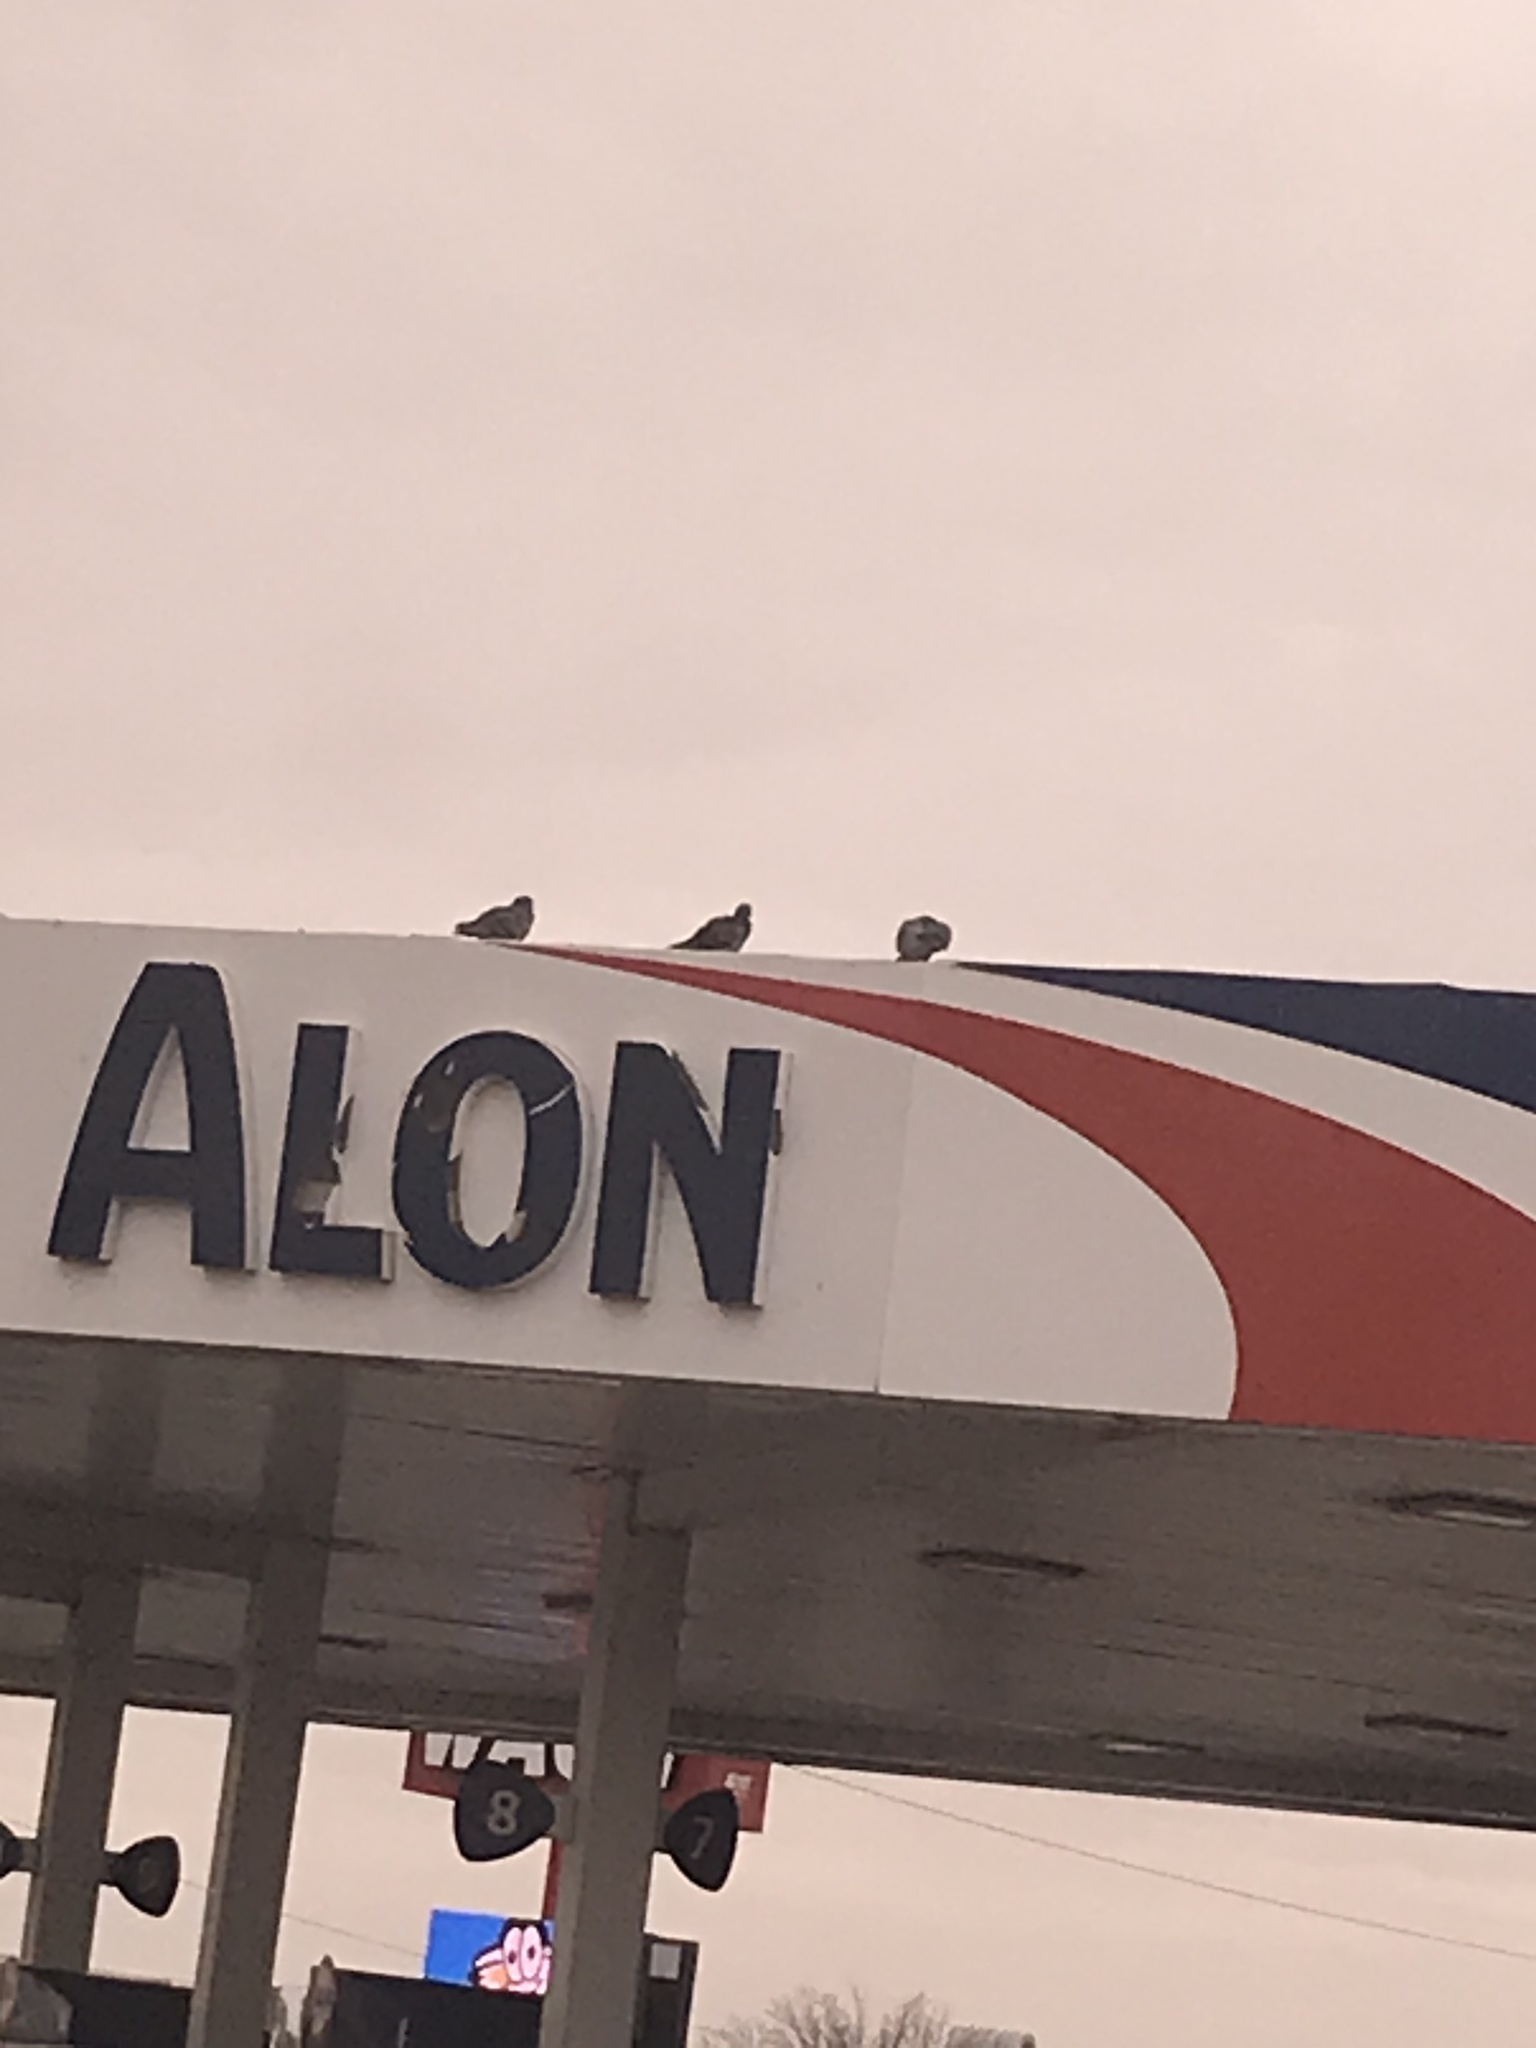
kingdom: Animalia
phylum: Chordata
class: Aves
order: Columbiformes
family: Columbidae
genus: Columba
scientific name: Columba livia
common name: Rock pigeon
